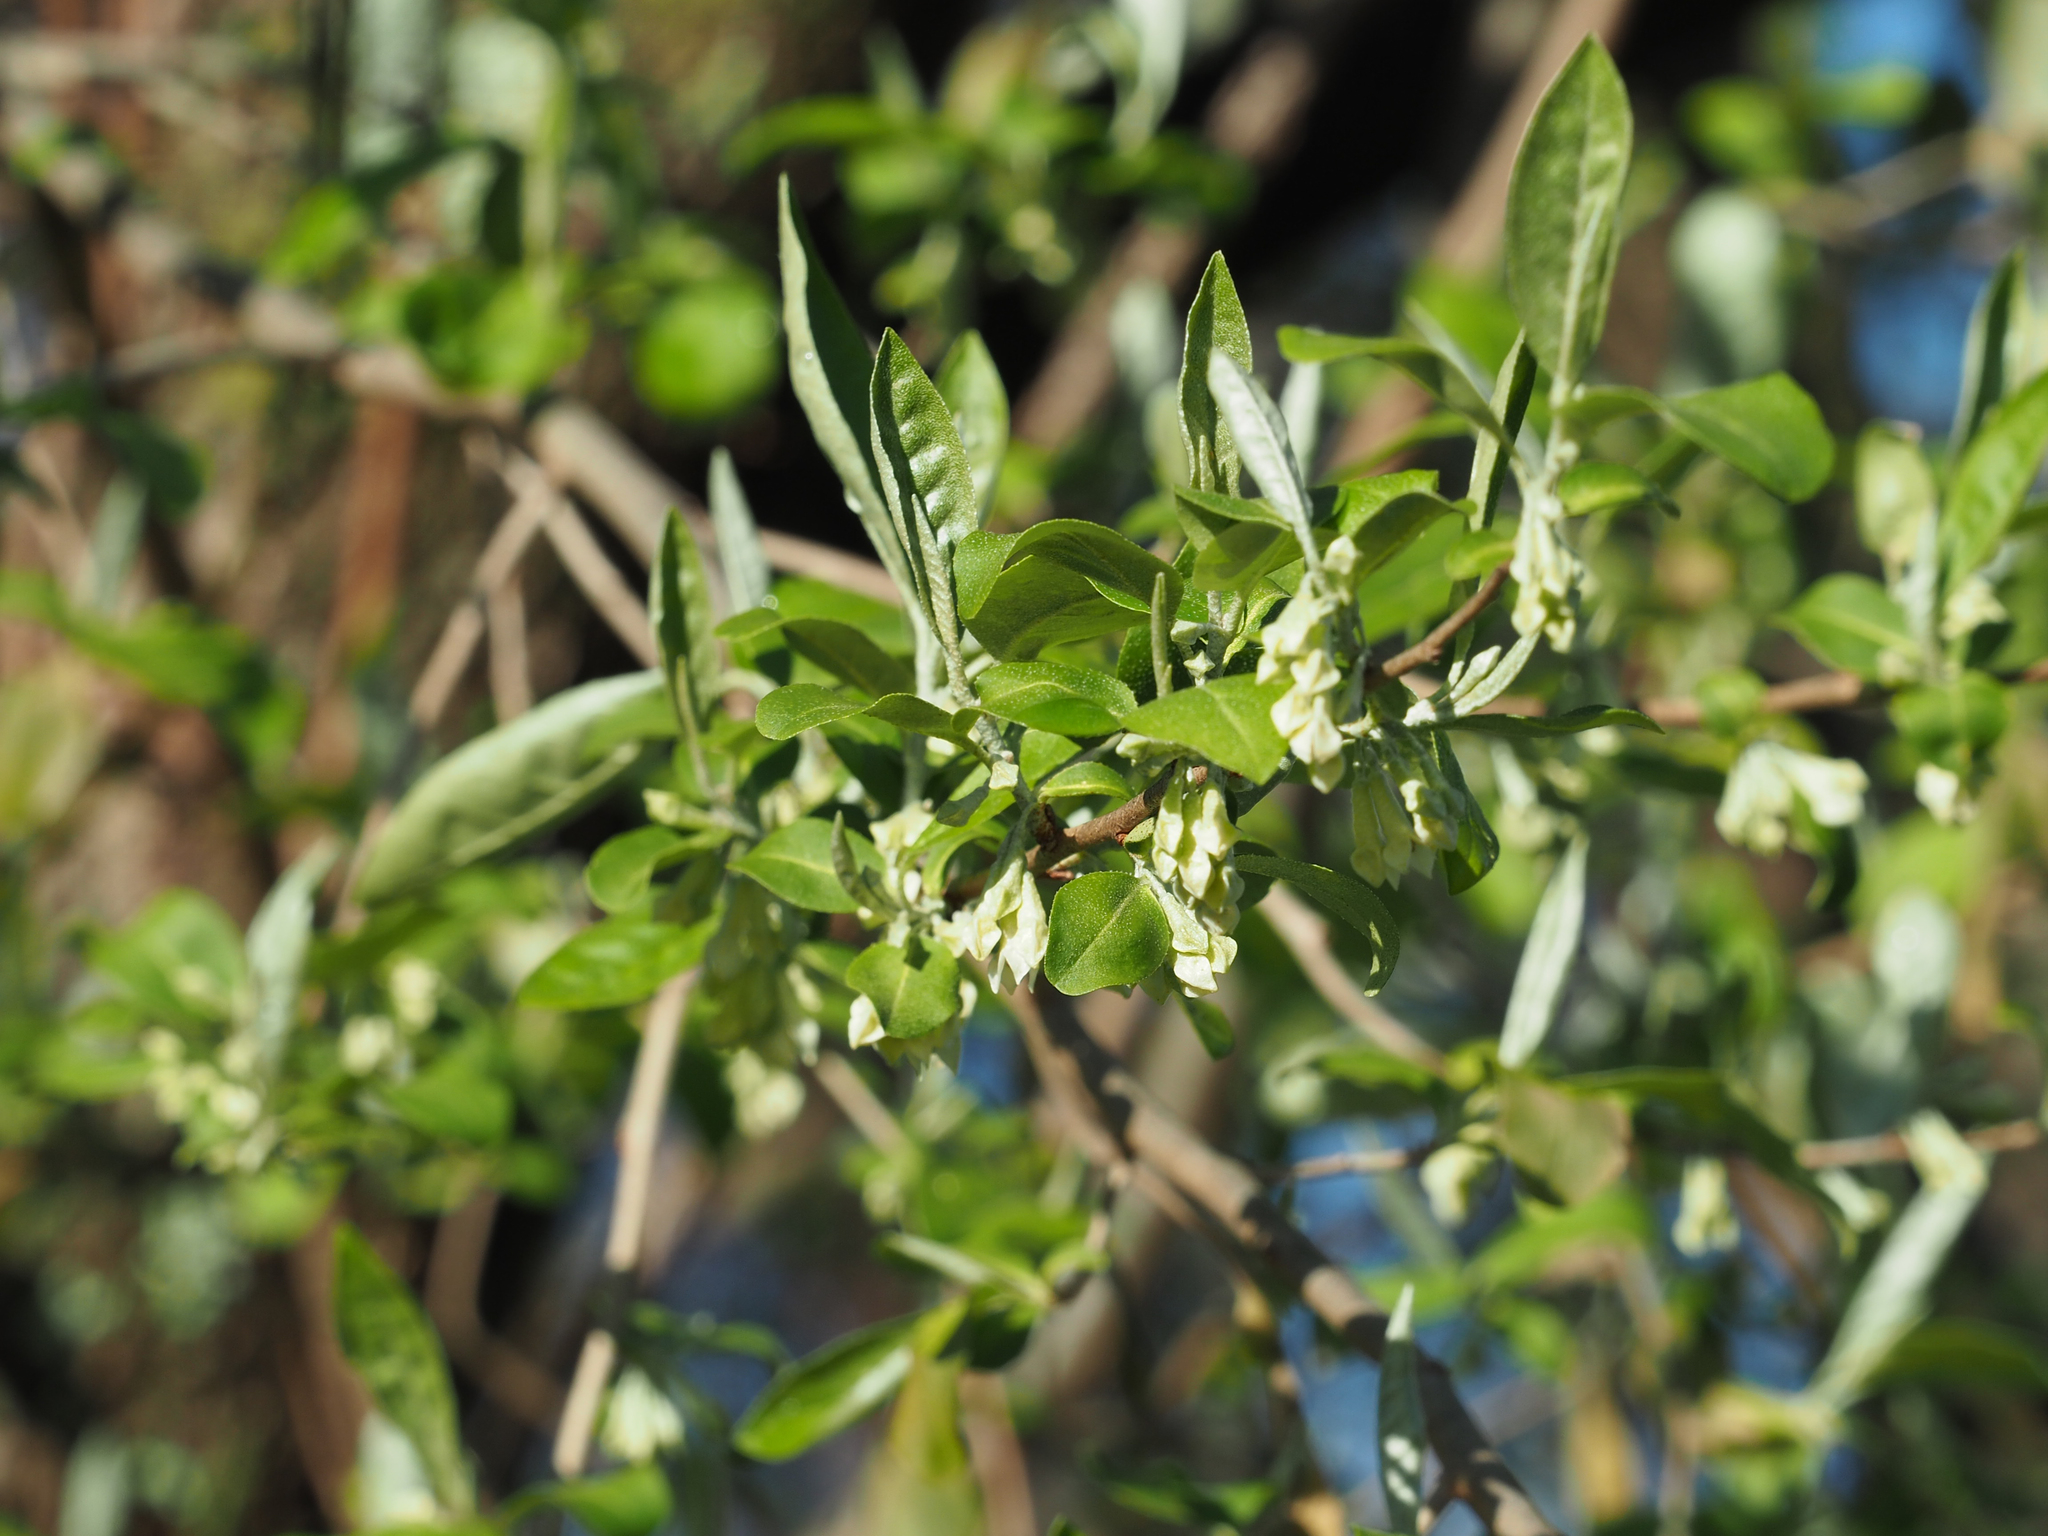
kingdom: Plantae
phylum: Tracheophyta
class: Magnoliopsida
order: Rosales
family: Elaeagnaceae
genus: Elaeagnus
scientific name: Elaeagnus umbellata
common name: Autumn olive
